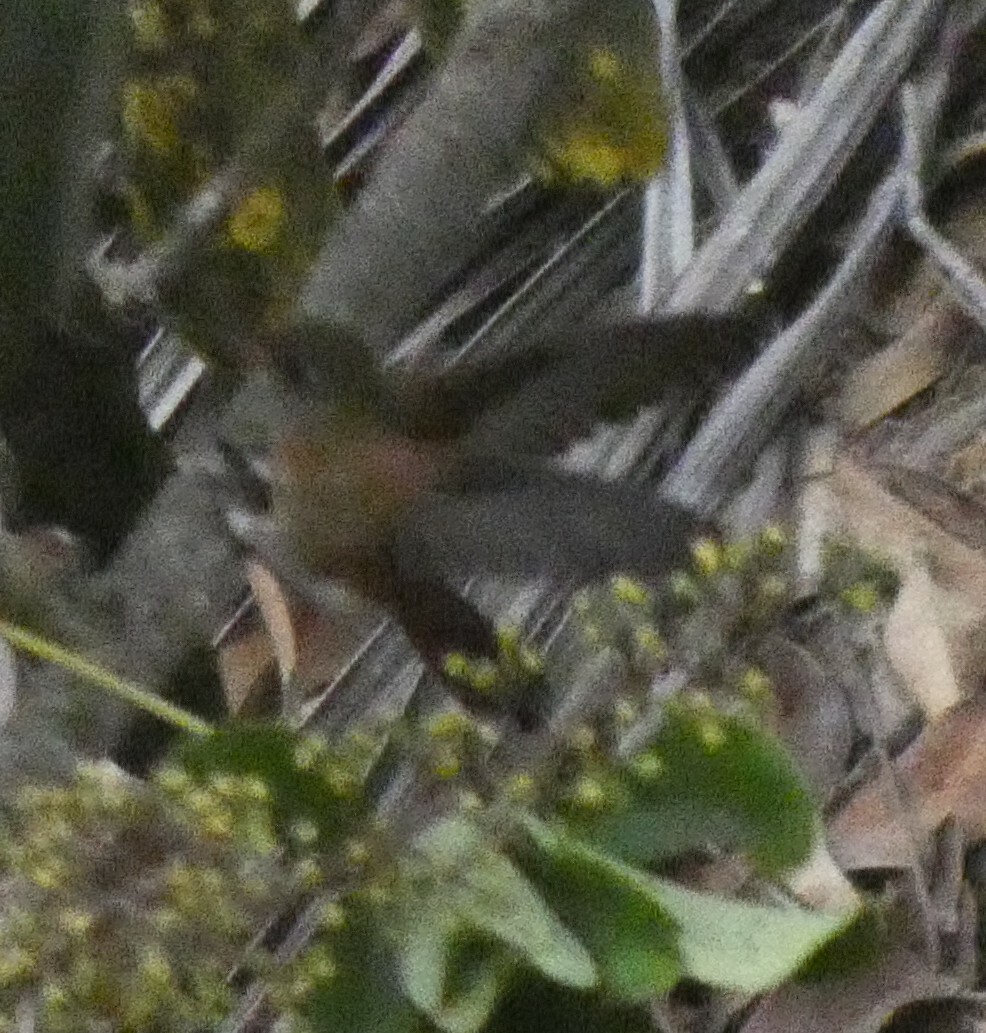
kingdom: Animalia
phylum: Chordata
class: Aves
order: Apodiformes
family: Trochilidae
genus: Amazilis
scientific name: Amazilis amazilia
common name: Amazilia hummingbird
